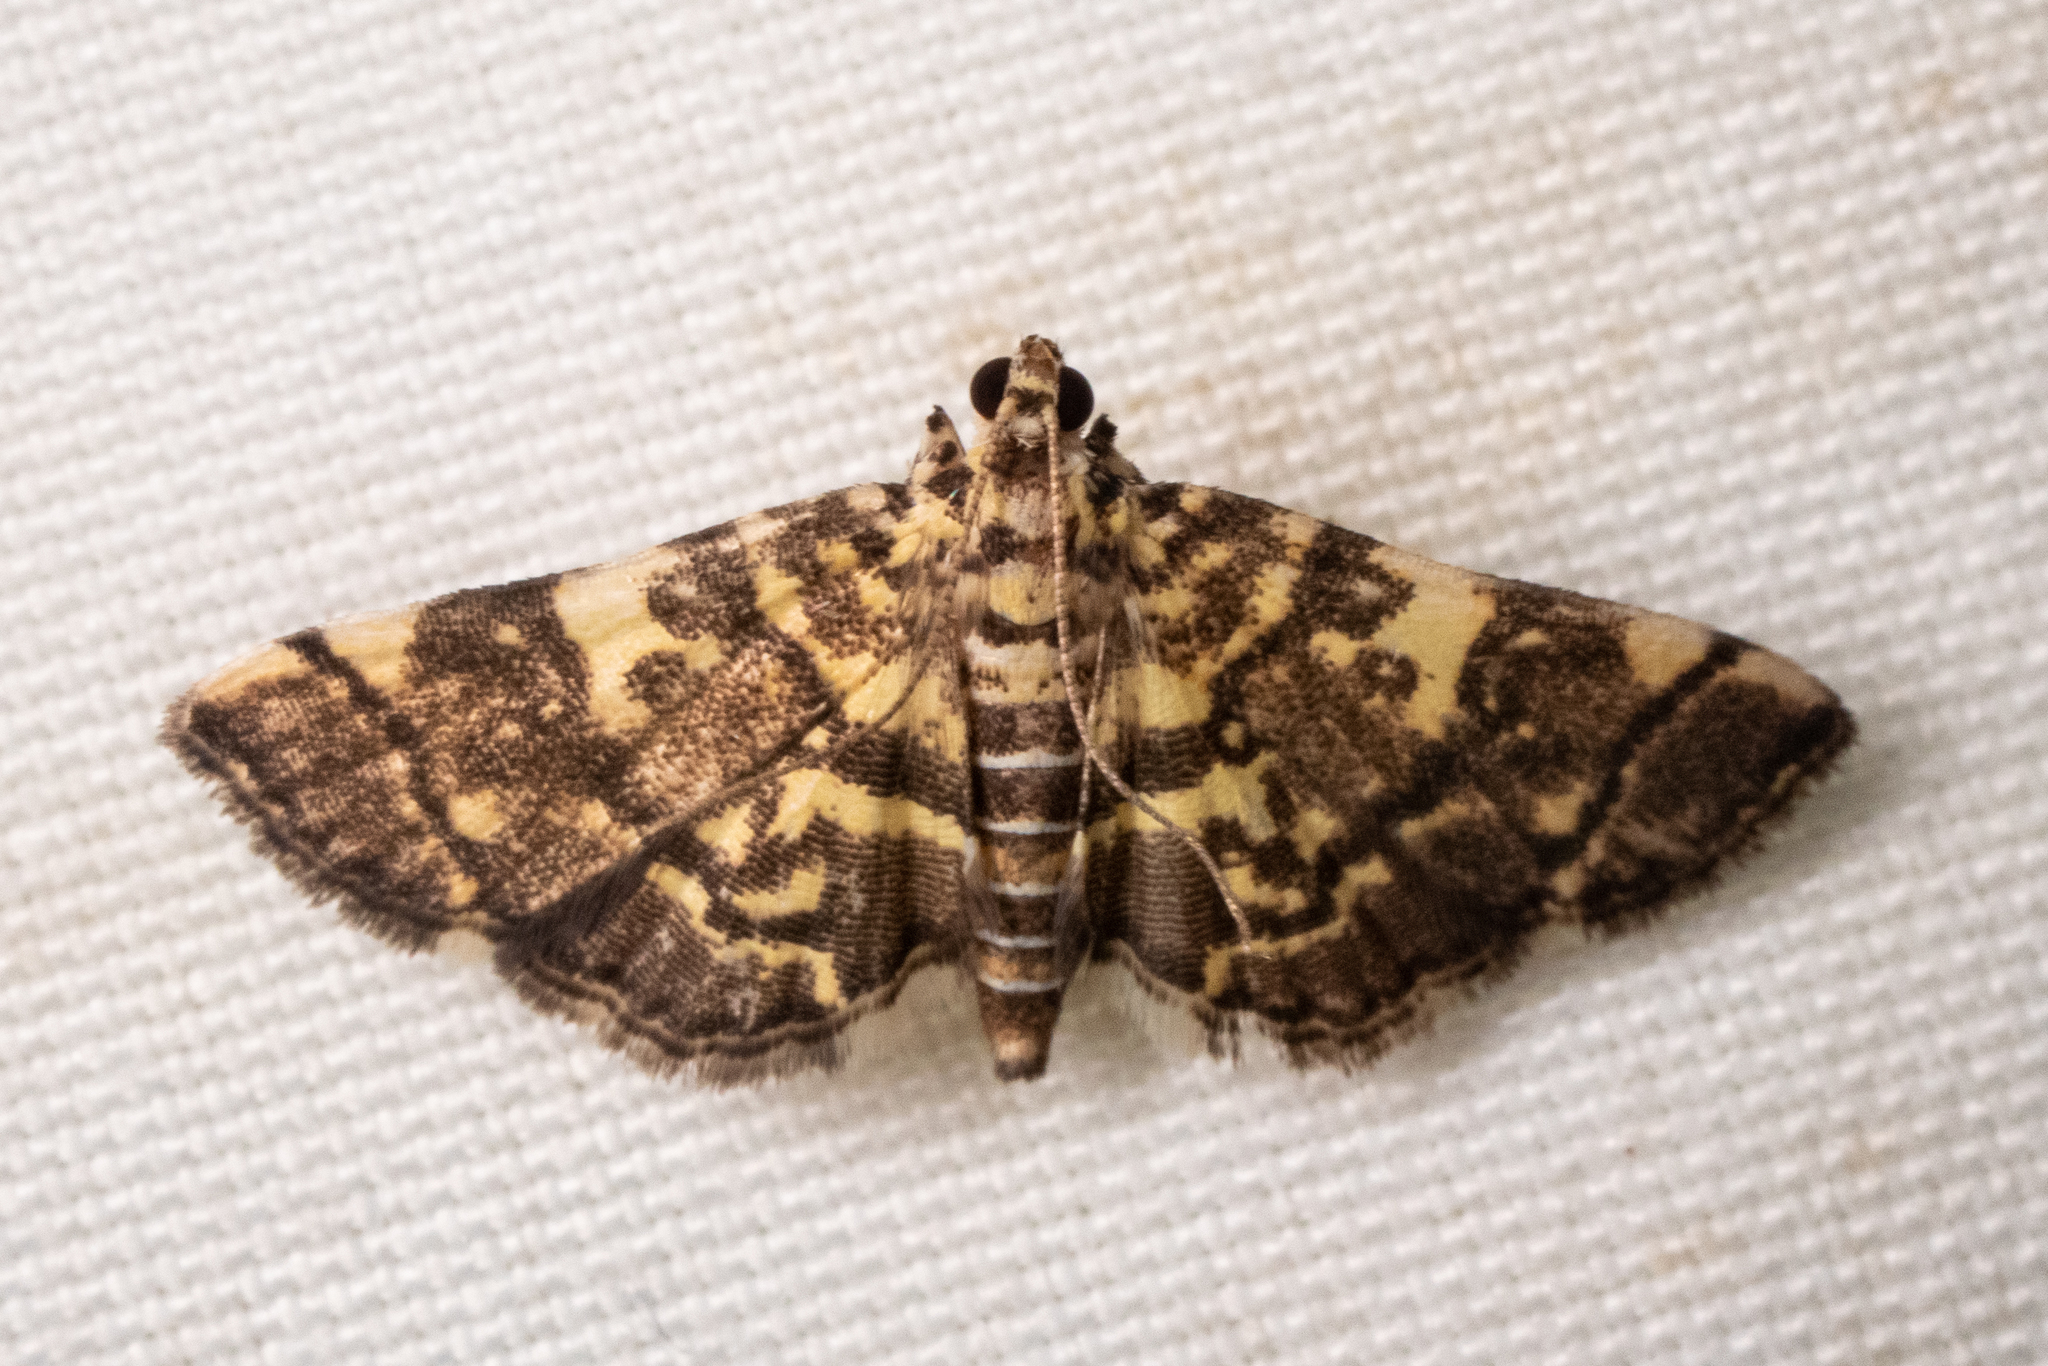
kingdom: Animalia
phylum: Arthropoda
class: Insecta
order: Lepidoptera
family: Crambidae
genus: Apogeshna
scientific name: Apogeshna stenialis
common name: Checkered apogeshna moth
